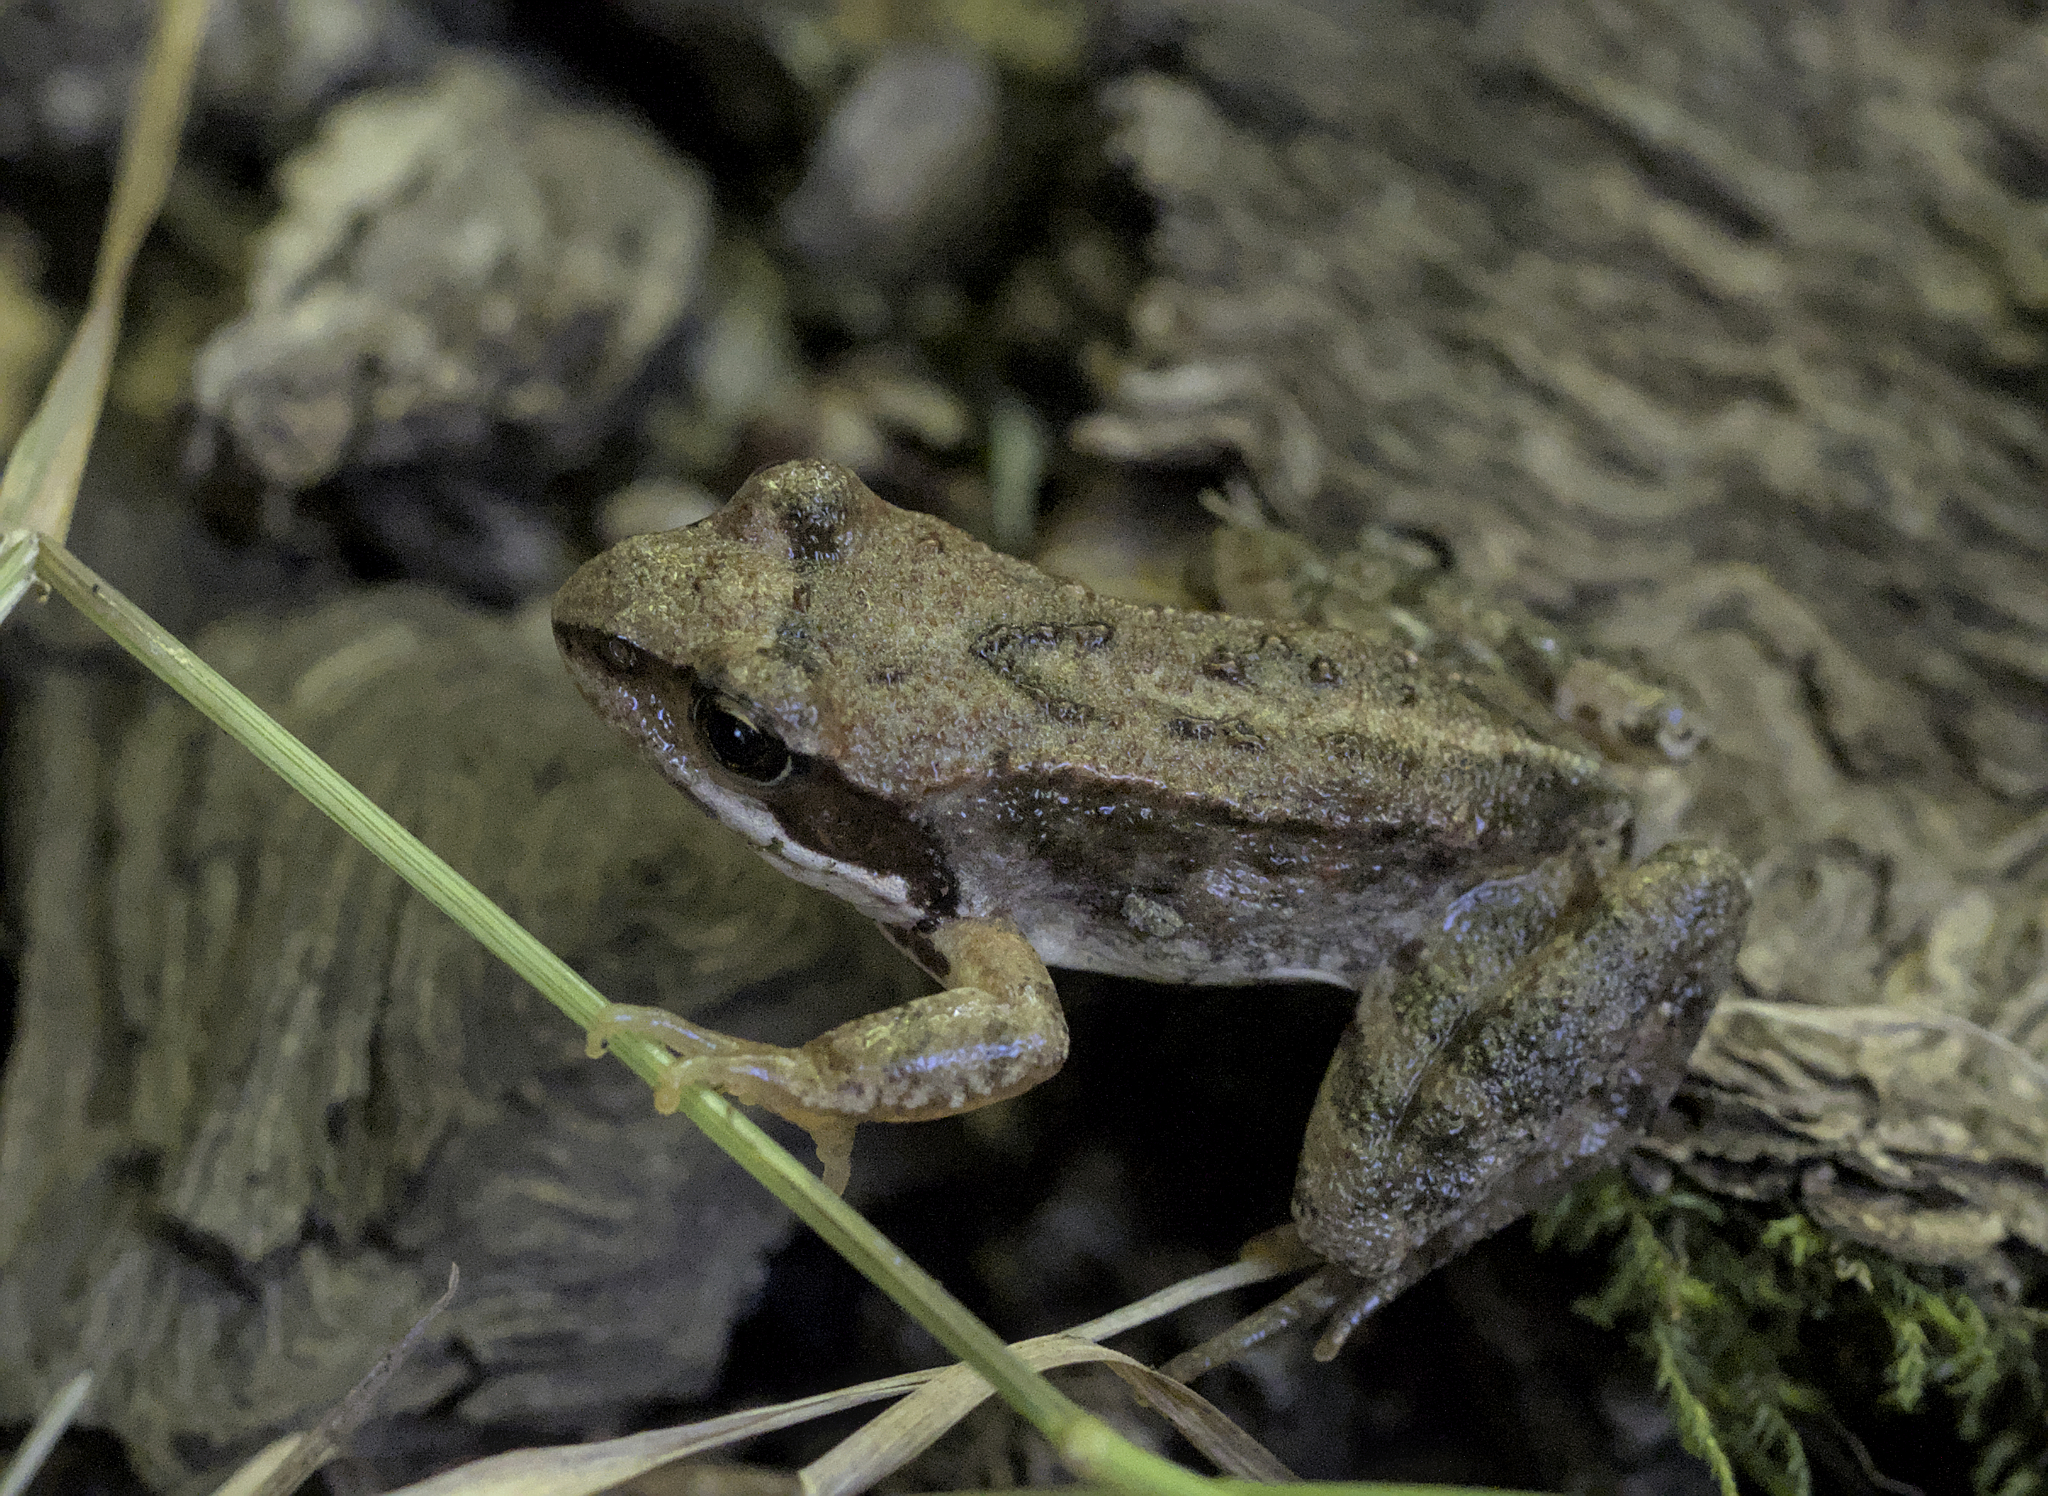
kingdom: Animalia
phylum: Chordata
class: Amphibia
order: Anura
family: Ranidae
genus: Rana
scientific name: Rana temporaria
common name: Common frog
